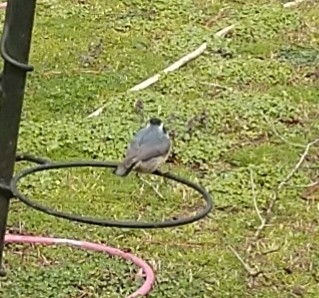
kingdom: Animalia
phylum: Chordata
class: Aves
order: Passeriformes
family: Sittidae
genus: Sitta
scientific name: Sitta canadensis
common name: Red-breasted nuthatch
